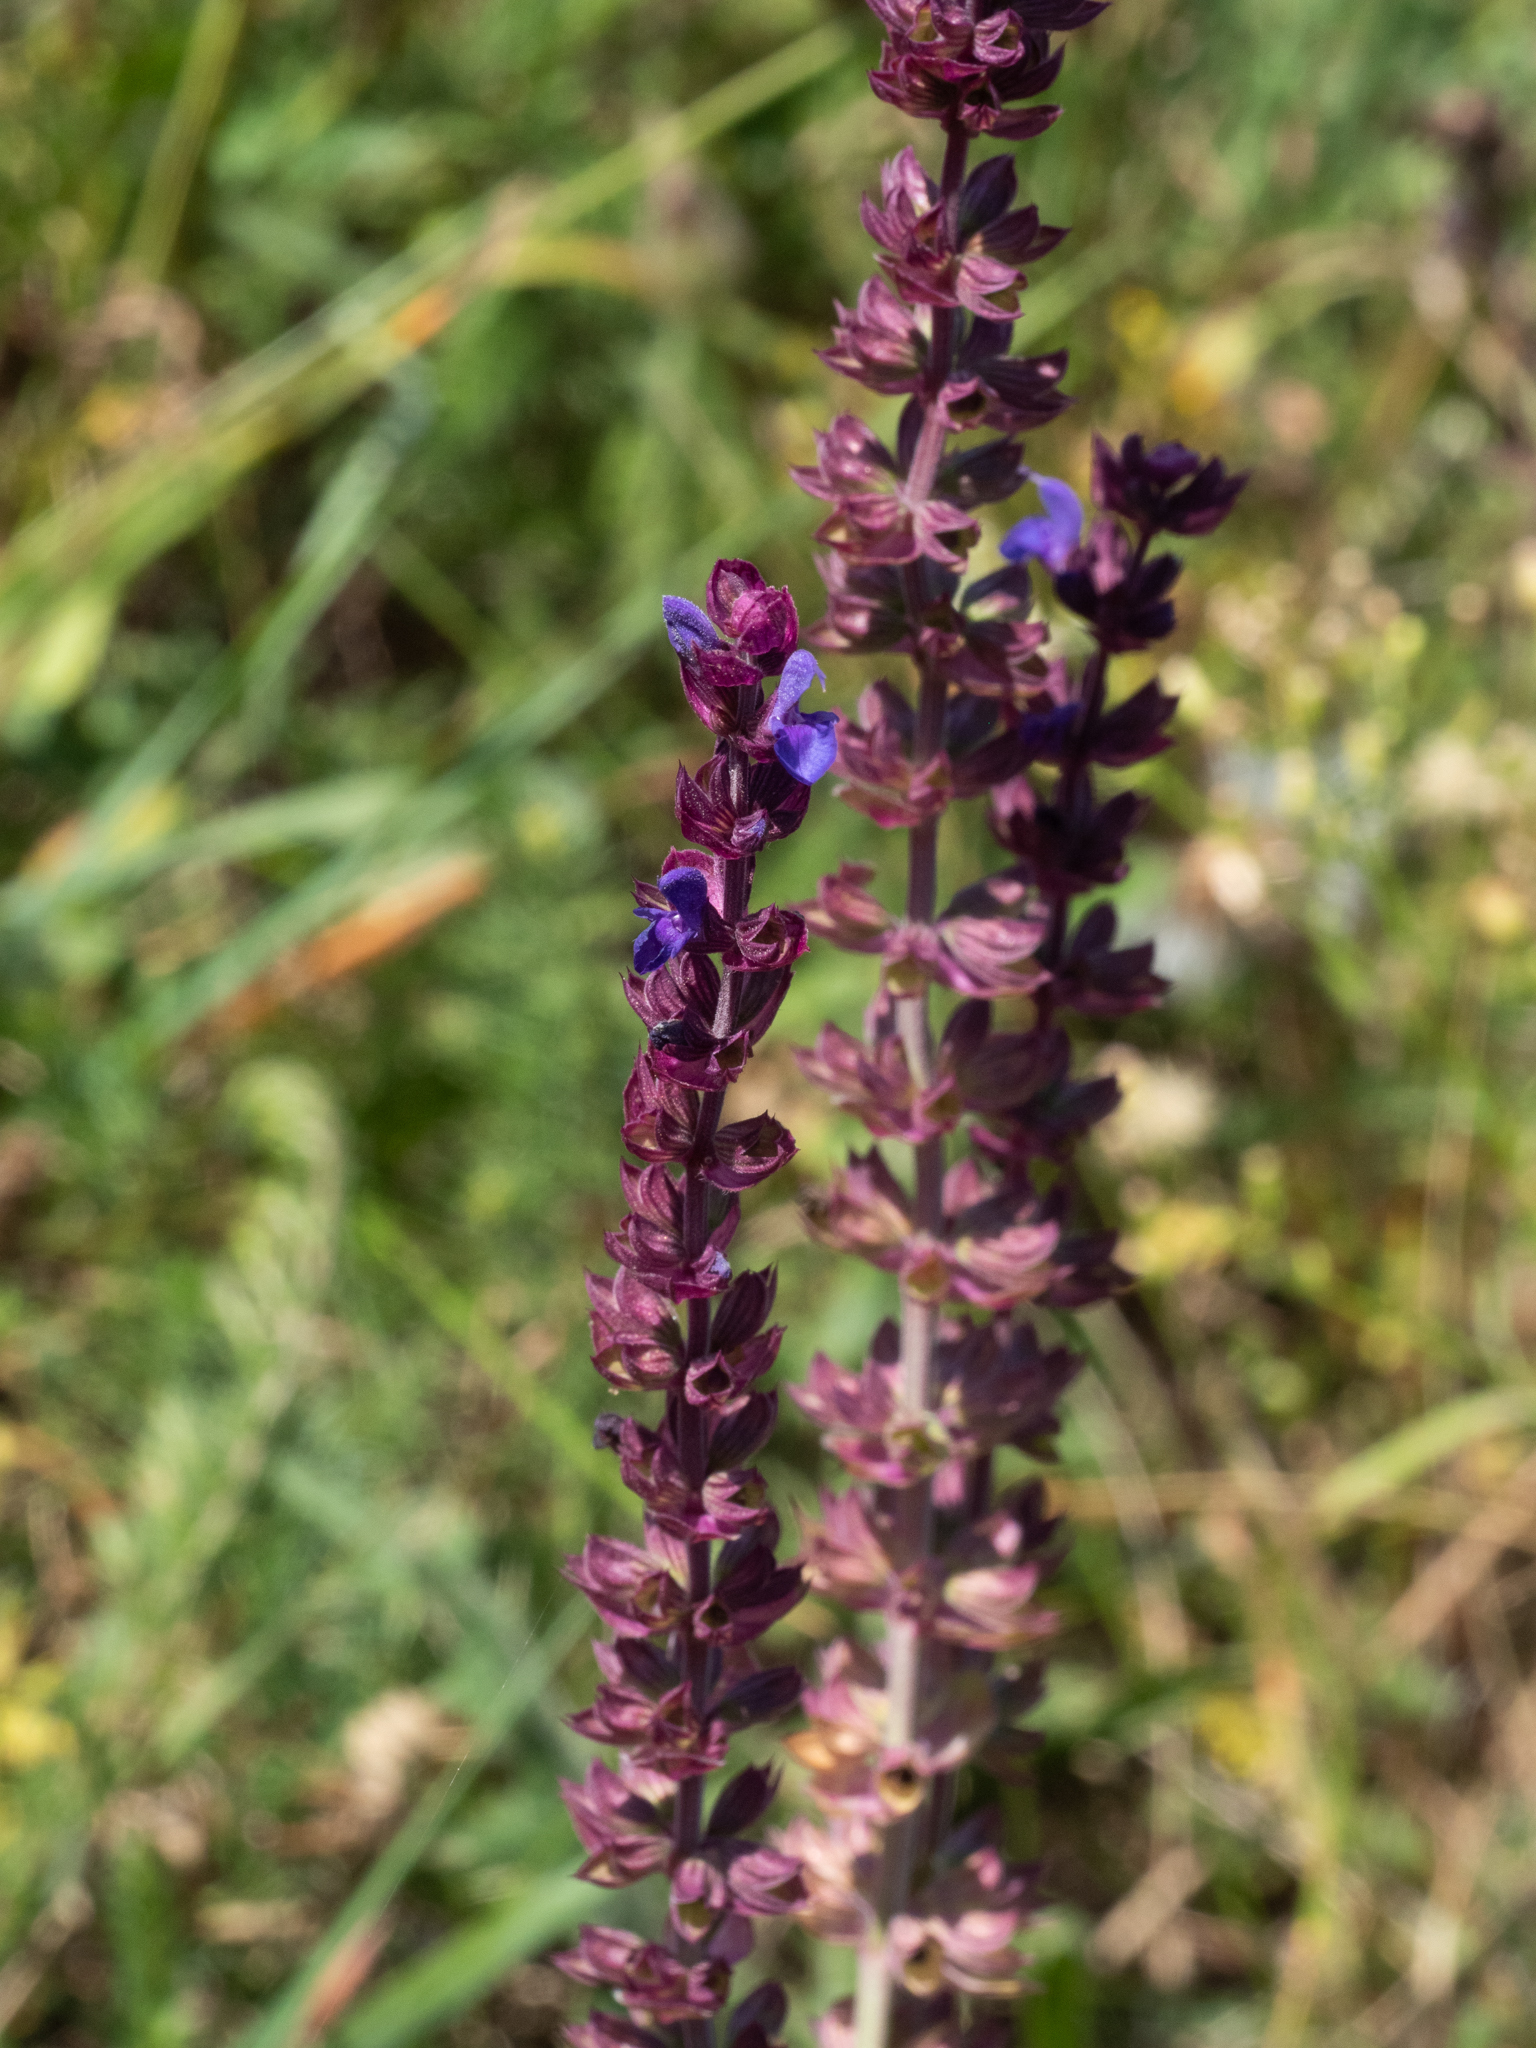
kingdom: Plantae
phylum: Tracheophyta
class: Magnoliopsida
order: Lamiales
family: Lamiaceae
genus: Salvia
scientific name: Salvia nemorosa
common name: Balkan clary
